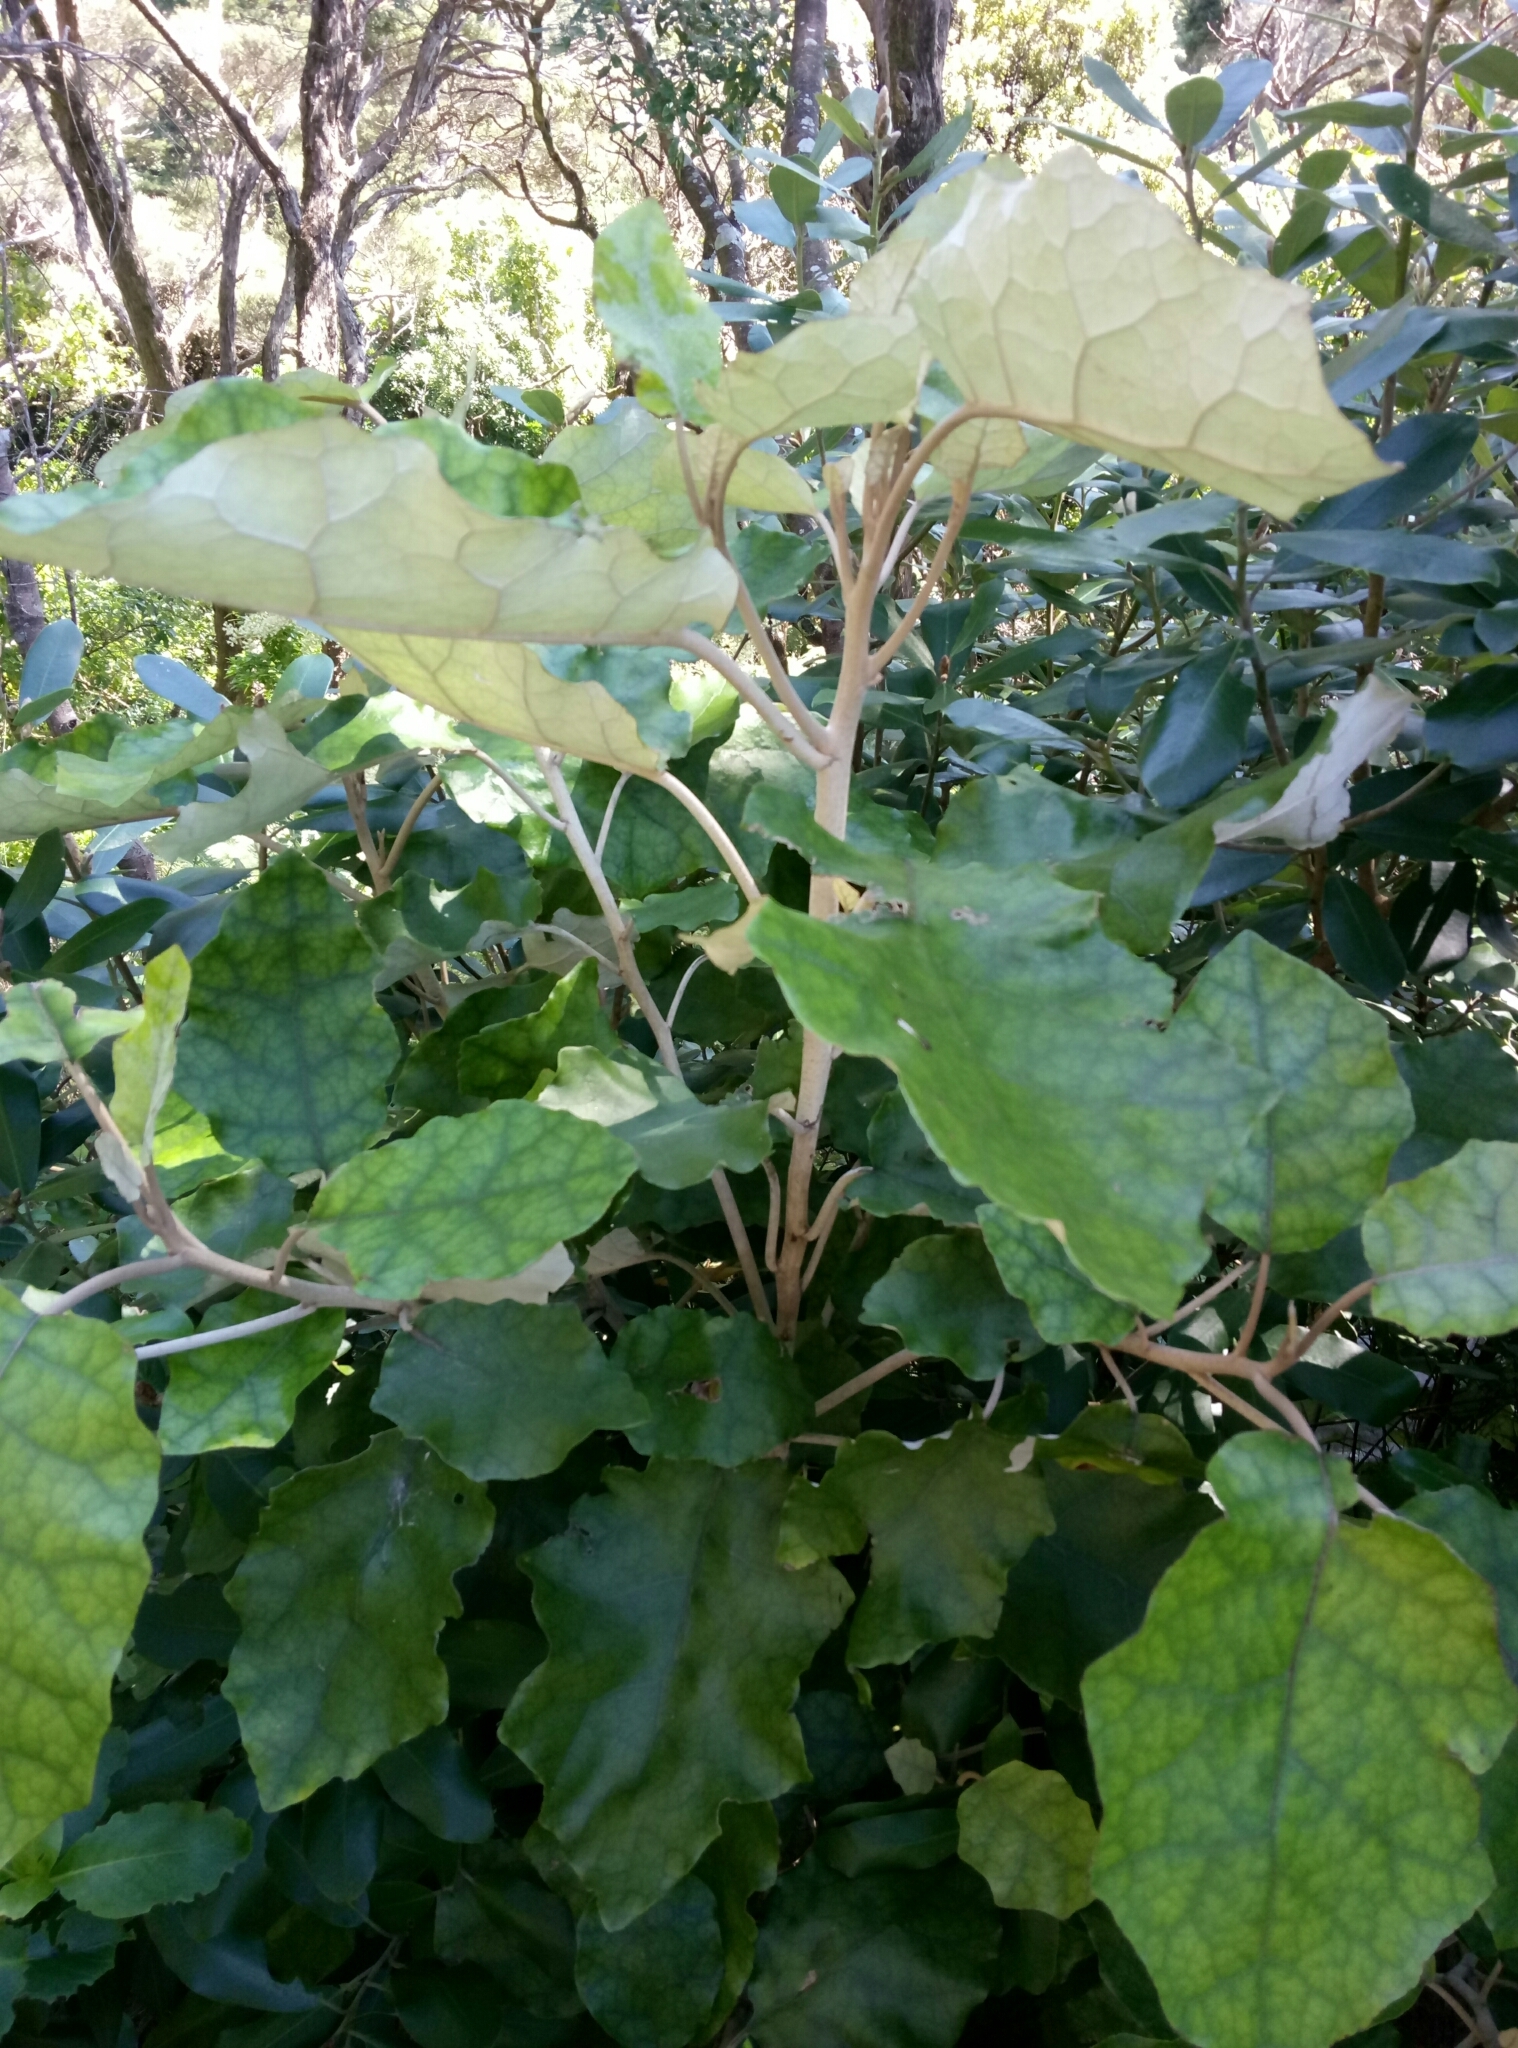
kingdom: Plantae
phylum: Tracheophyta
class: Magnoliopsida
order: Asterales
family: Asteraceae
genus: Brachyglottis
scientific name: Brachyglottis repanda
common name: Hedge ragwort
